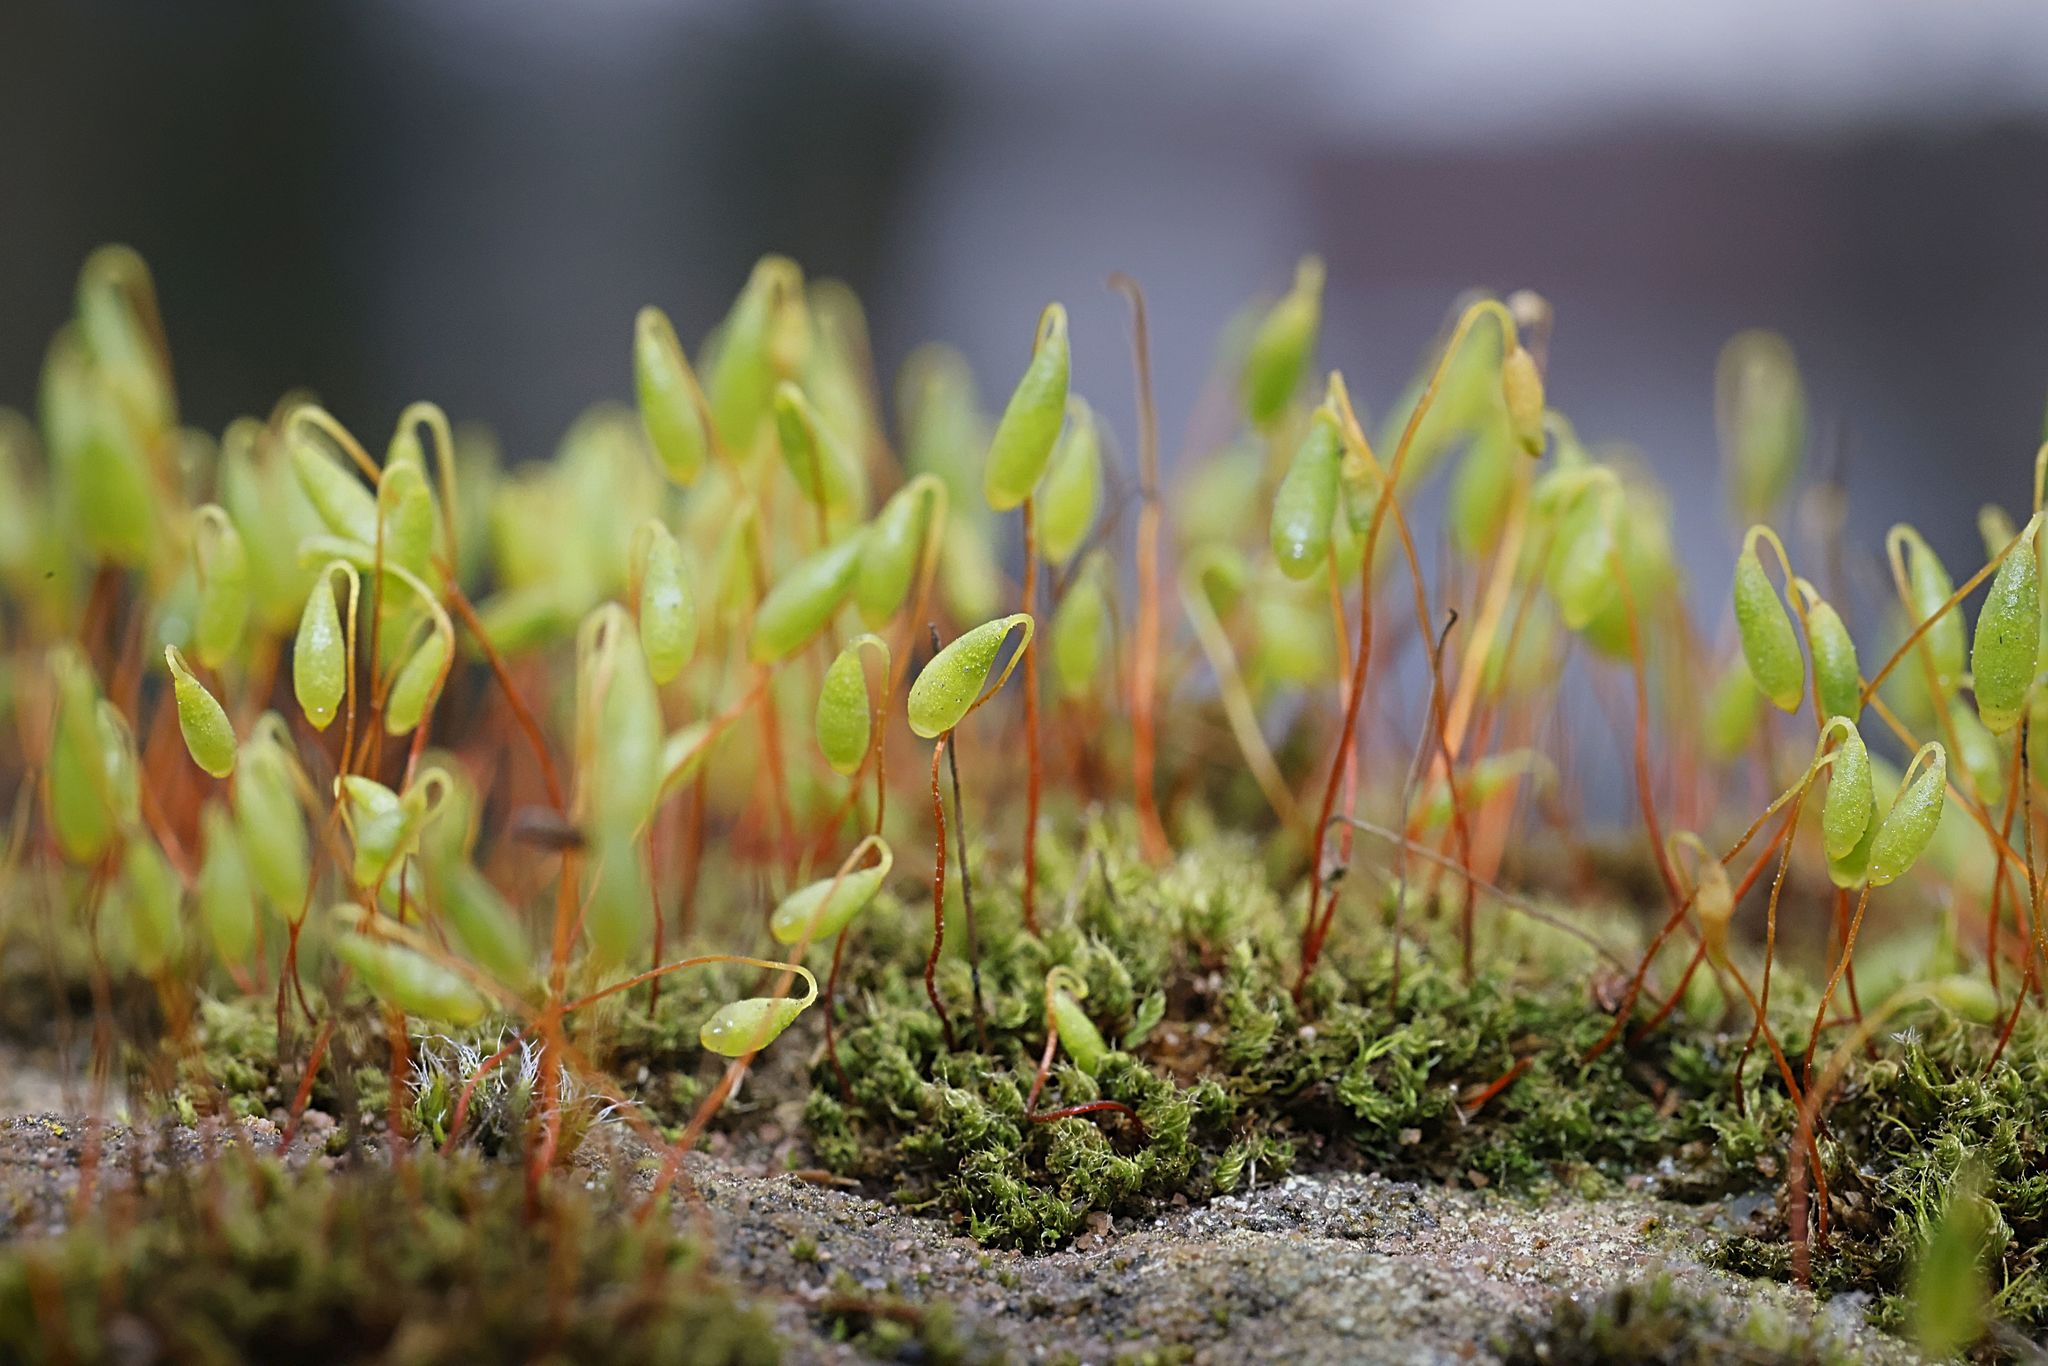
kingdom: Plantae
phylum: Bryophyta
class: Bryopsida
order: Bryales
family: Bryaceae
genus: Rosulabryum
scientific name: Rosulabryum capillare
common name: Capillary thread-moss
